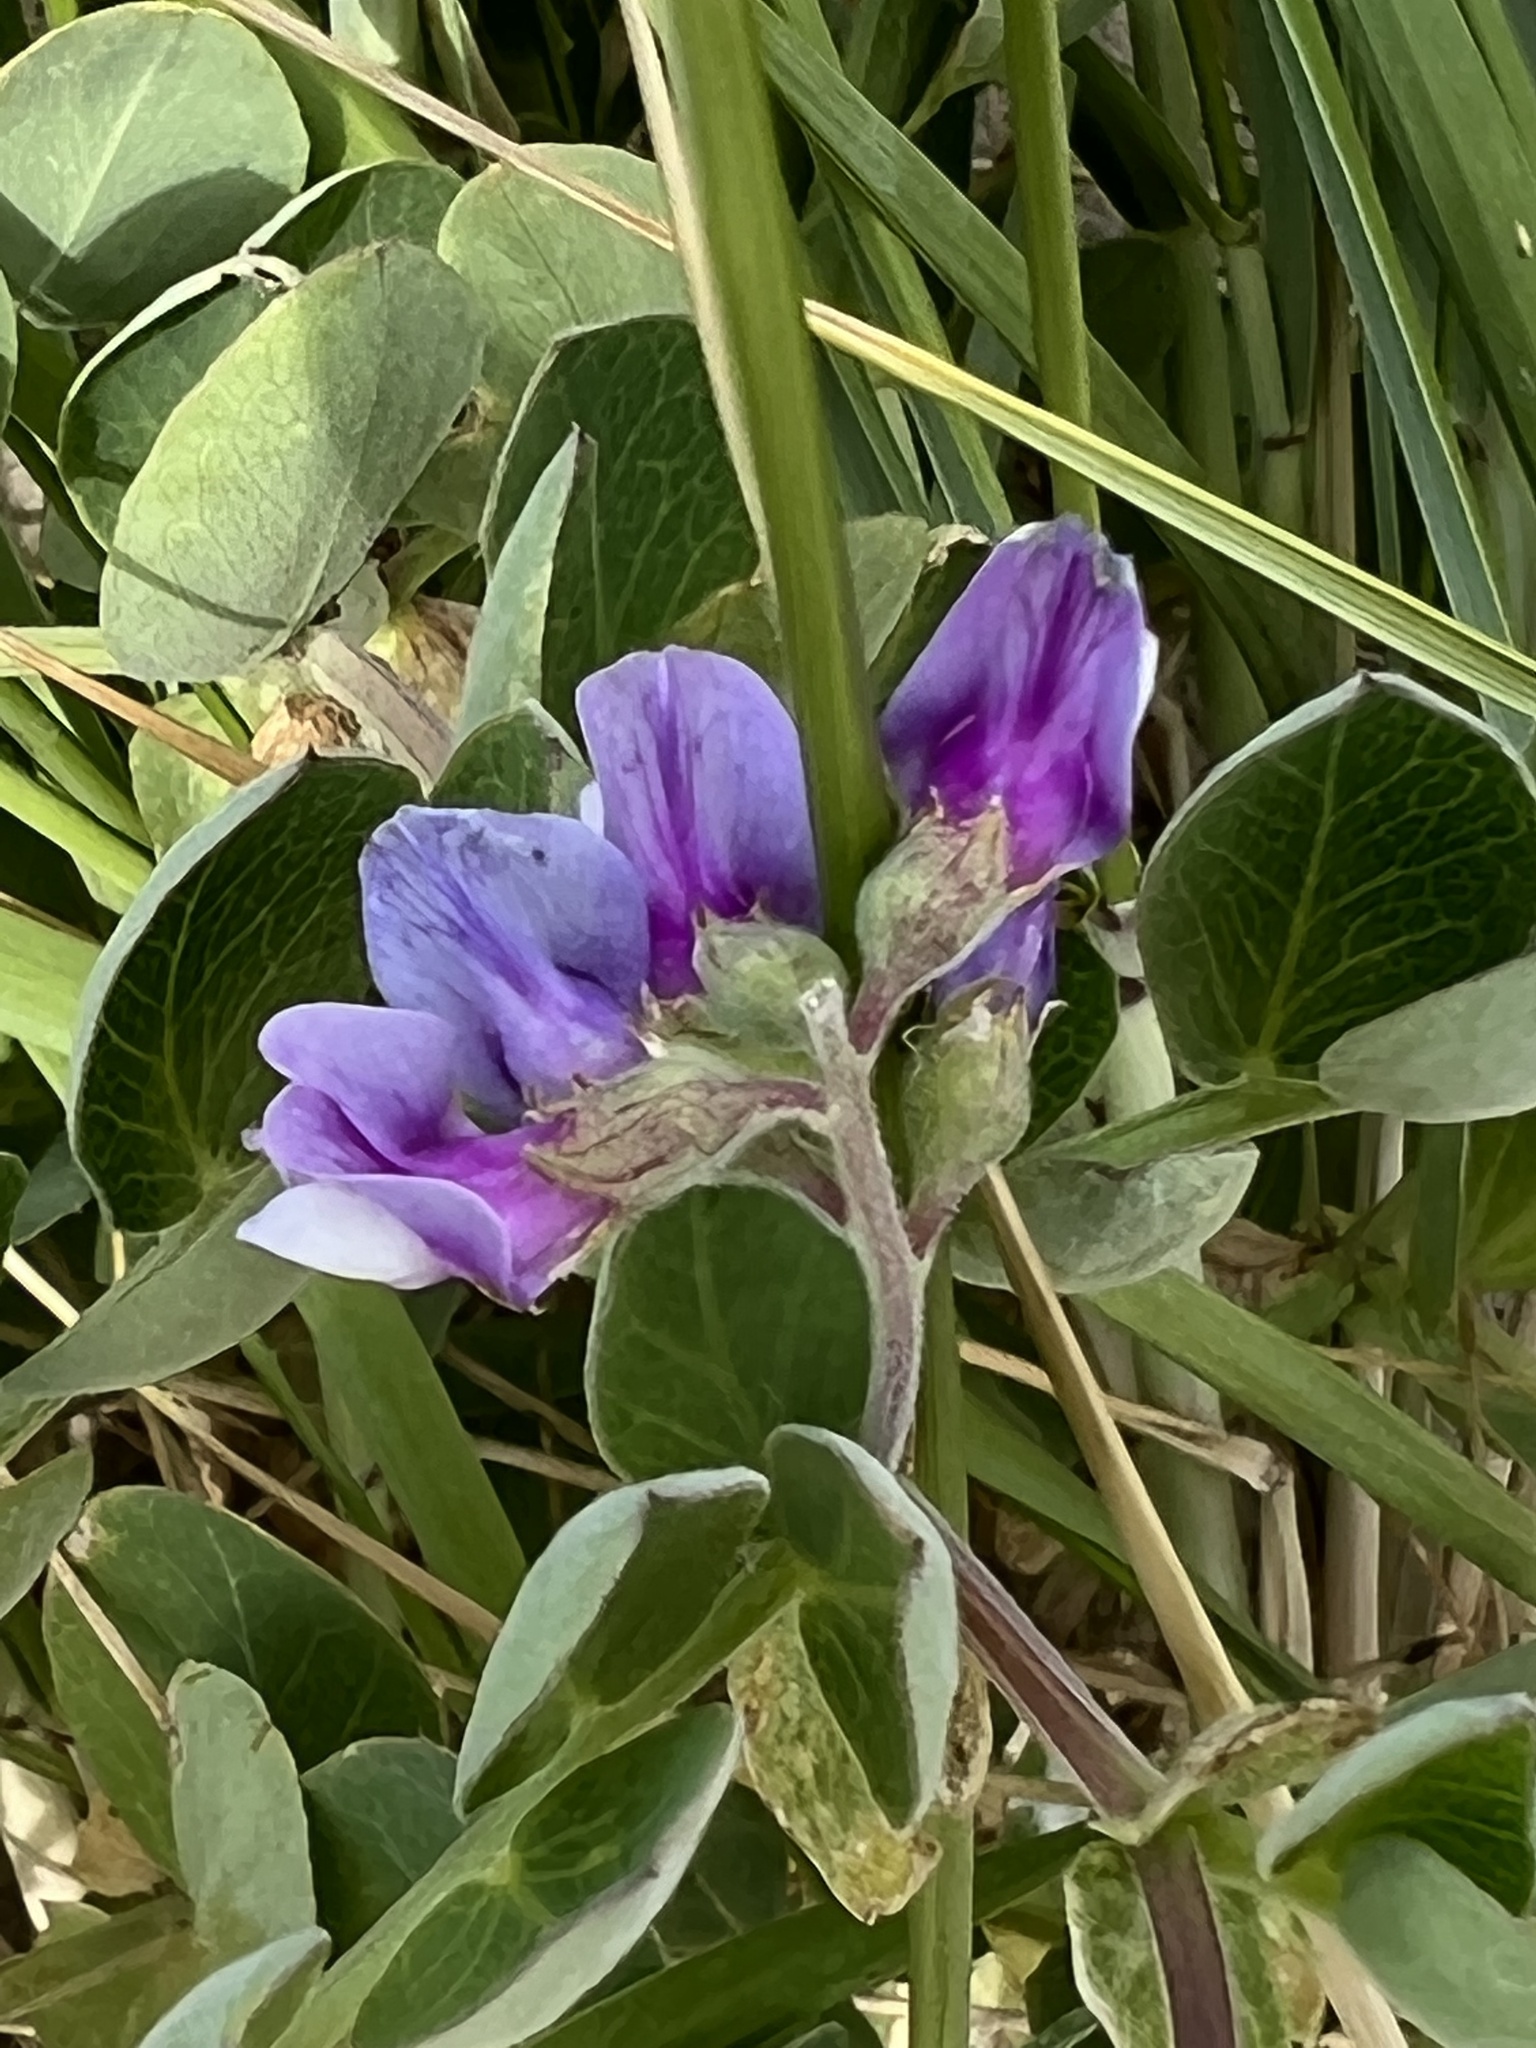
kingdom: Plantae
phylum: Tracheophyta
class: Magnoliopsida
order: Fabales
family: Fabaceae
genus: Lathyrus
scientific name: Lathyrus japonicus
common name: Sea pea
